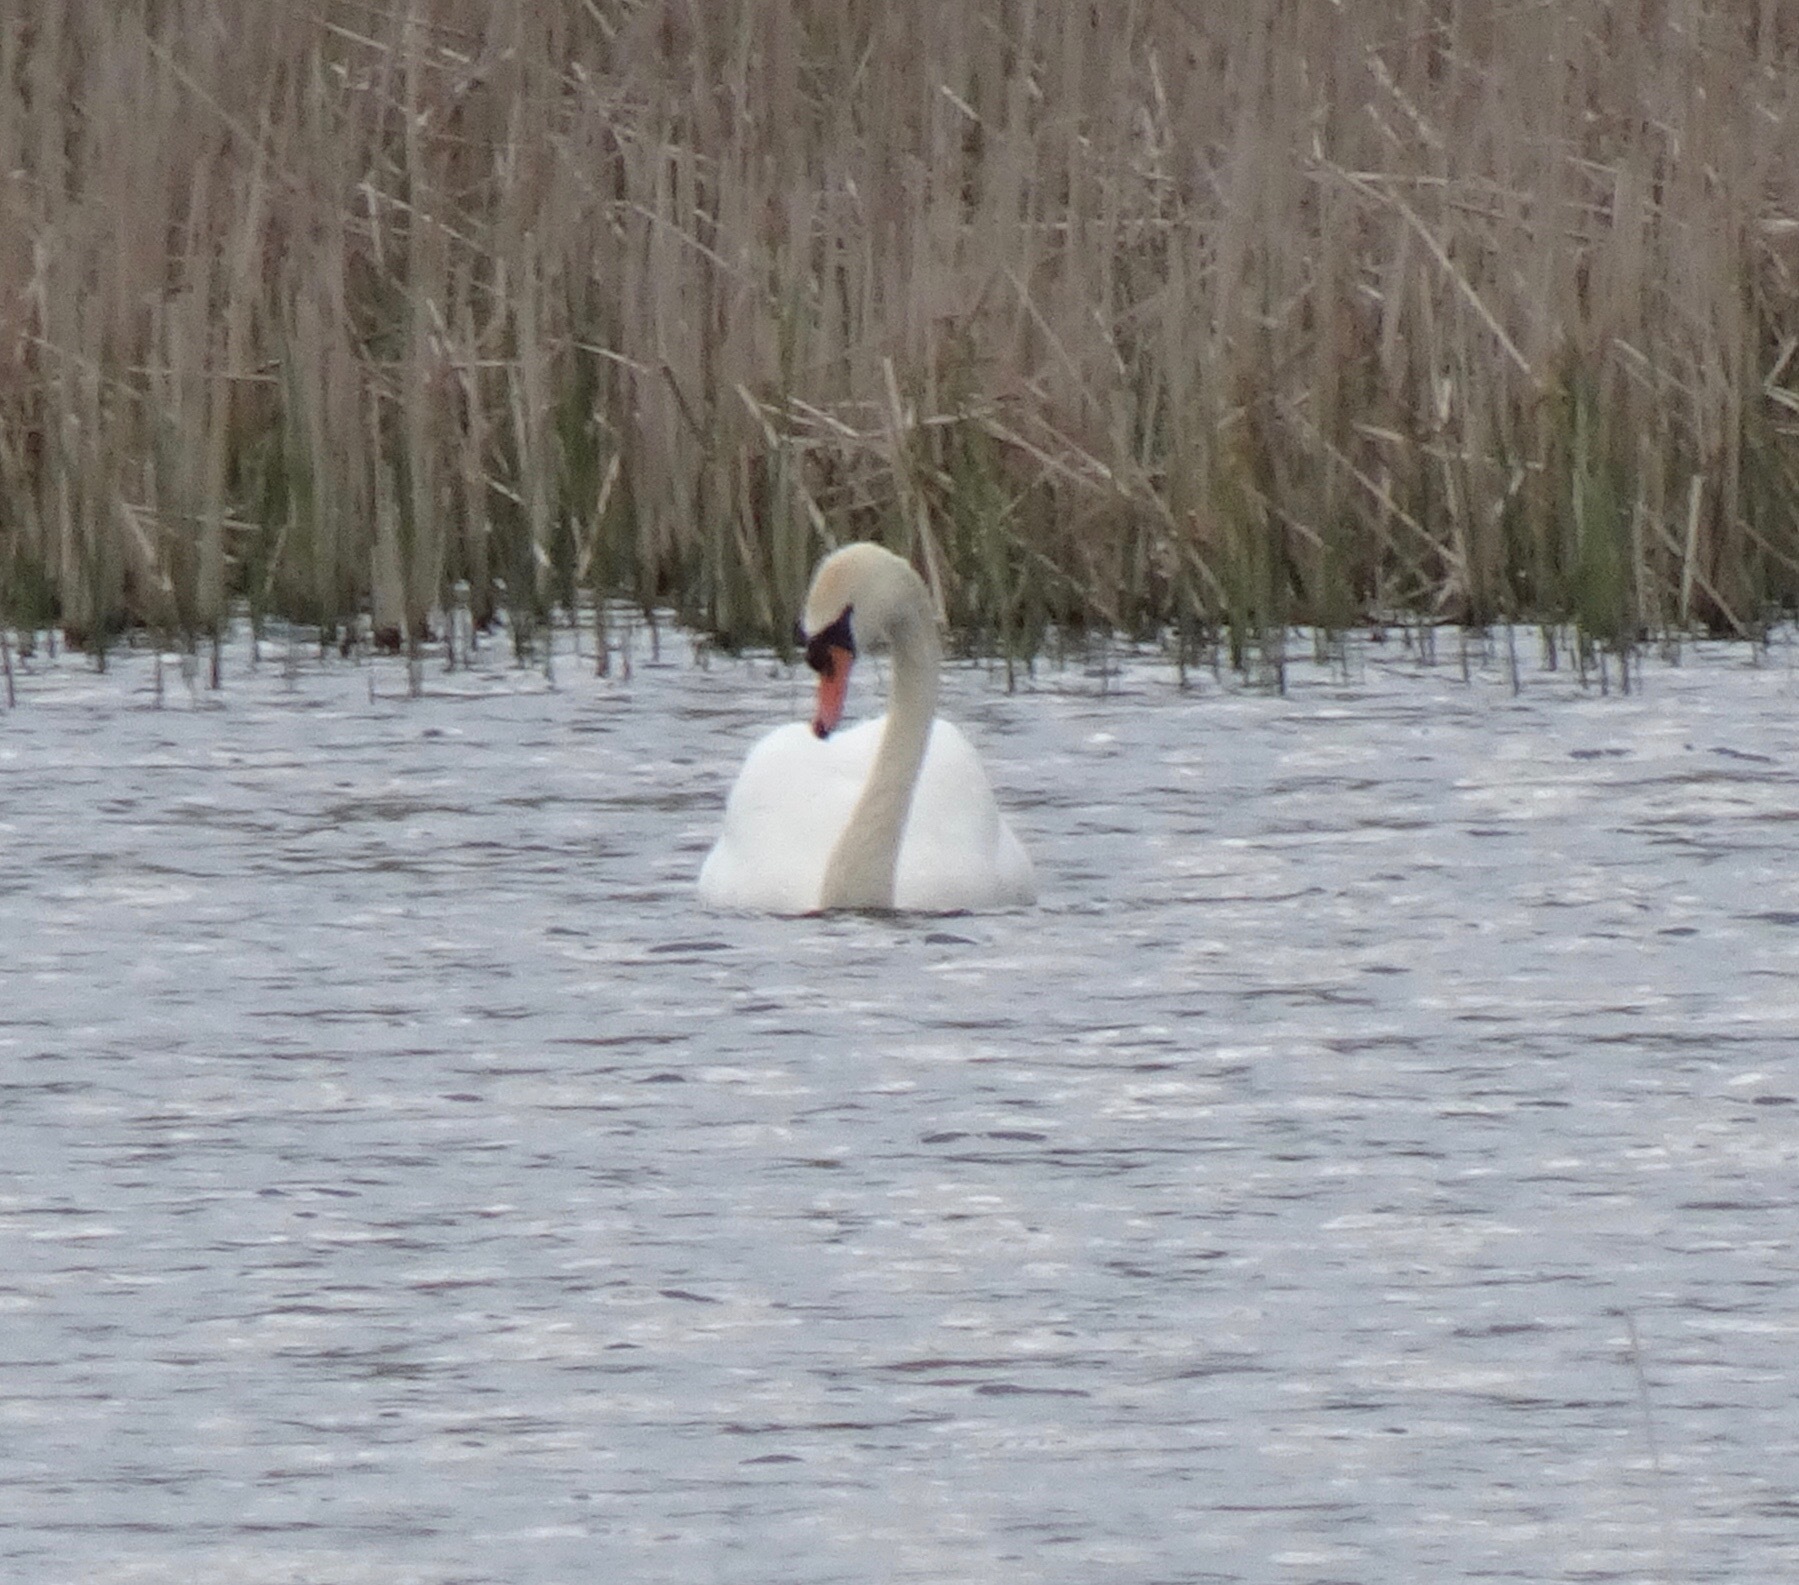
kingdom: Animalia
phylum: Chordata
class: Aves
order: Anseriformes
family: Anatidae
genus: Cygnus
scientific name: Cygnus olor
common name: Mute swan
